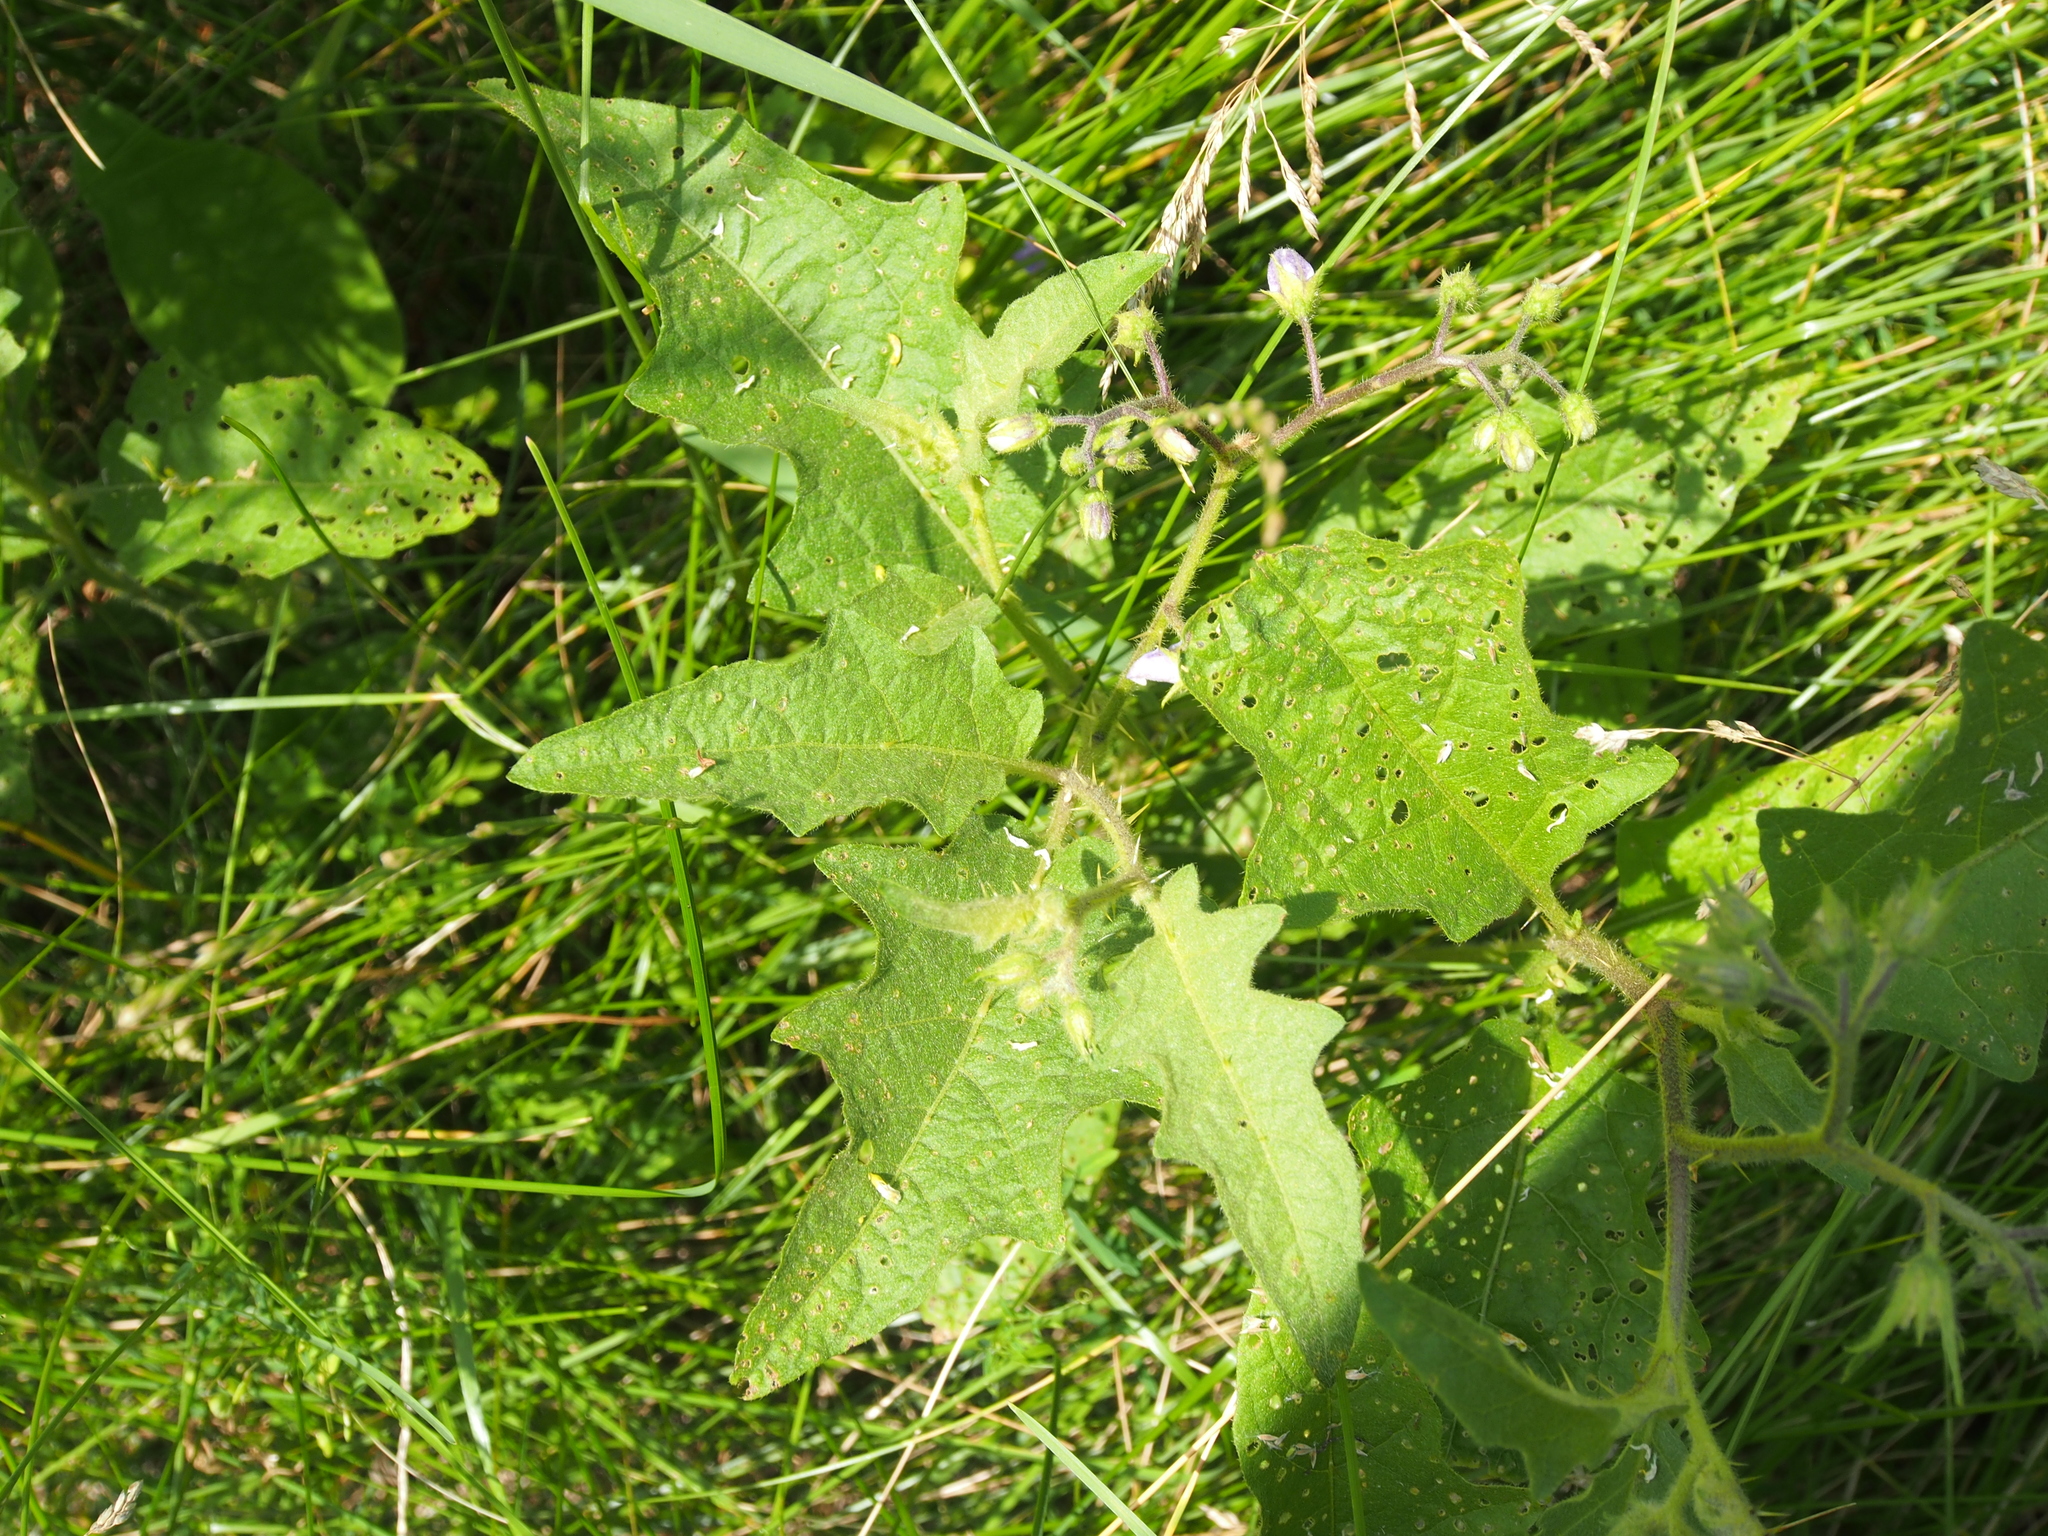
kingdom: Plantae
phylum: Tracheophyta
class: Magnoliopsida
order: Solanales
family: Solanaceae
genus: Solanum
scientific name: Solanum carolinense
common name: Horse-nettle
